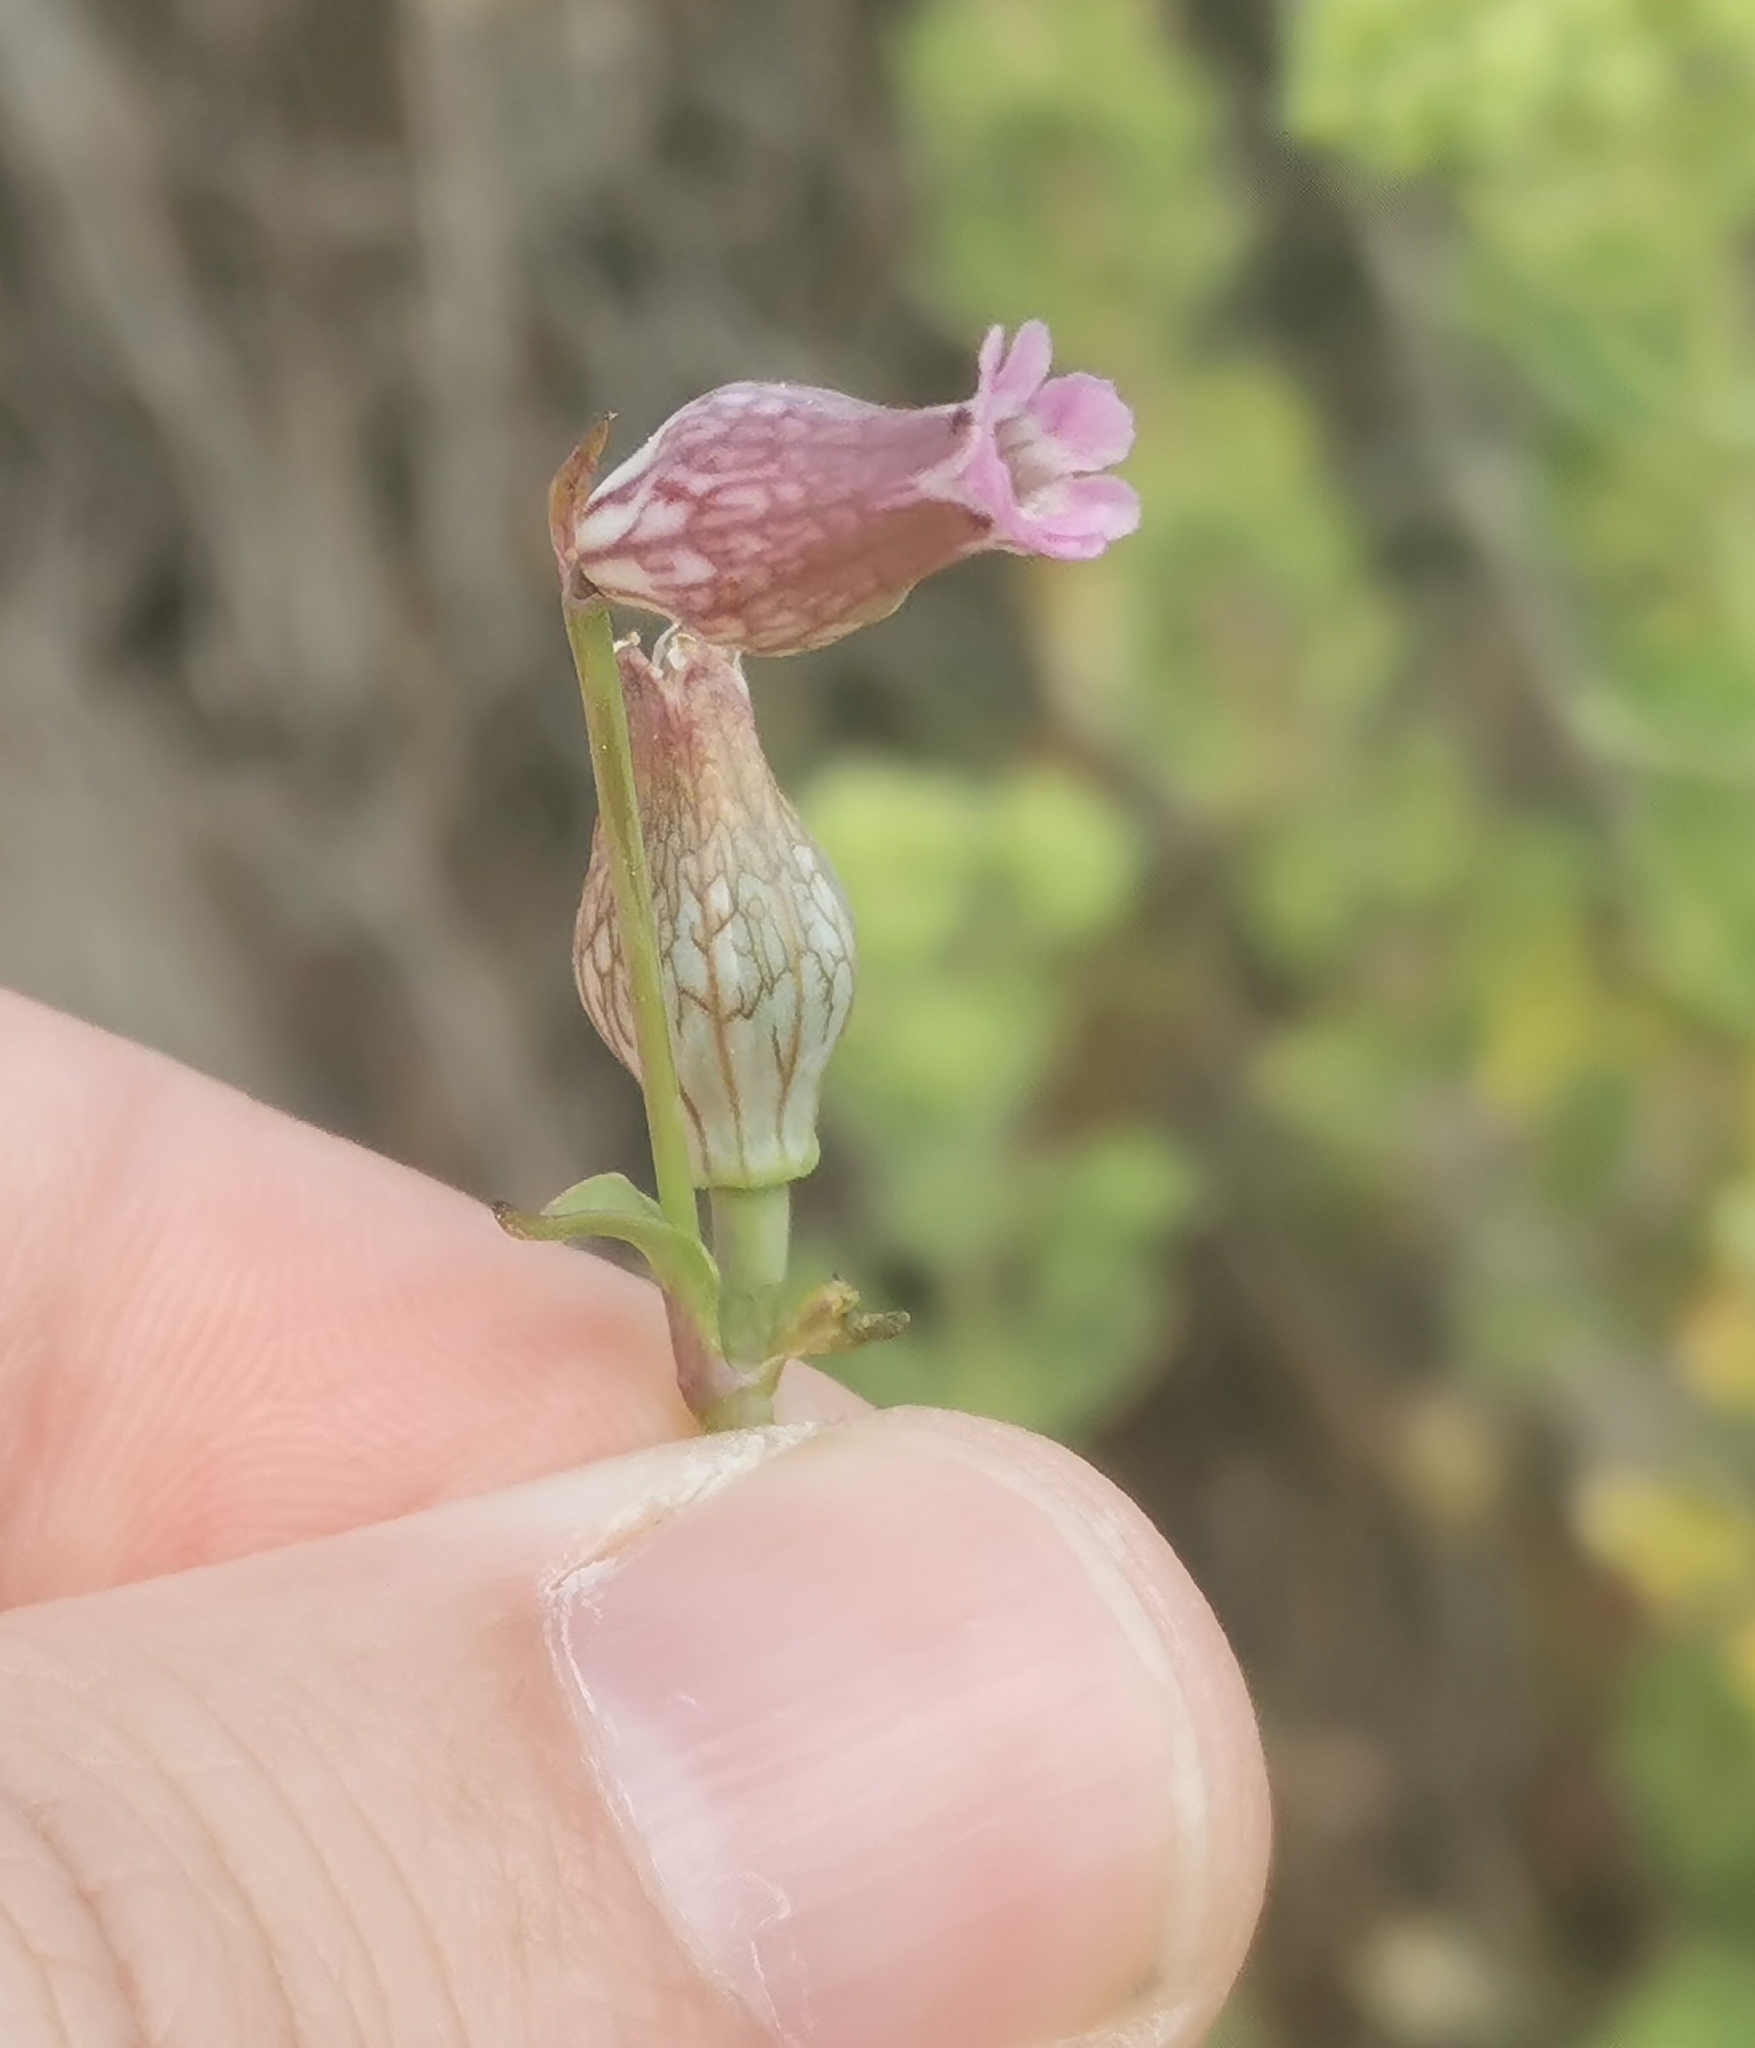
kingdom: Plantae
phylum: Tracheophyta
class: Magnoliopsida
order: Caryophyllales
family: Caryophyllaceae
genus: Silene
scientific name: Silene behen
